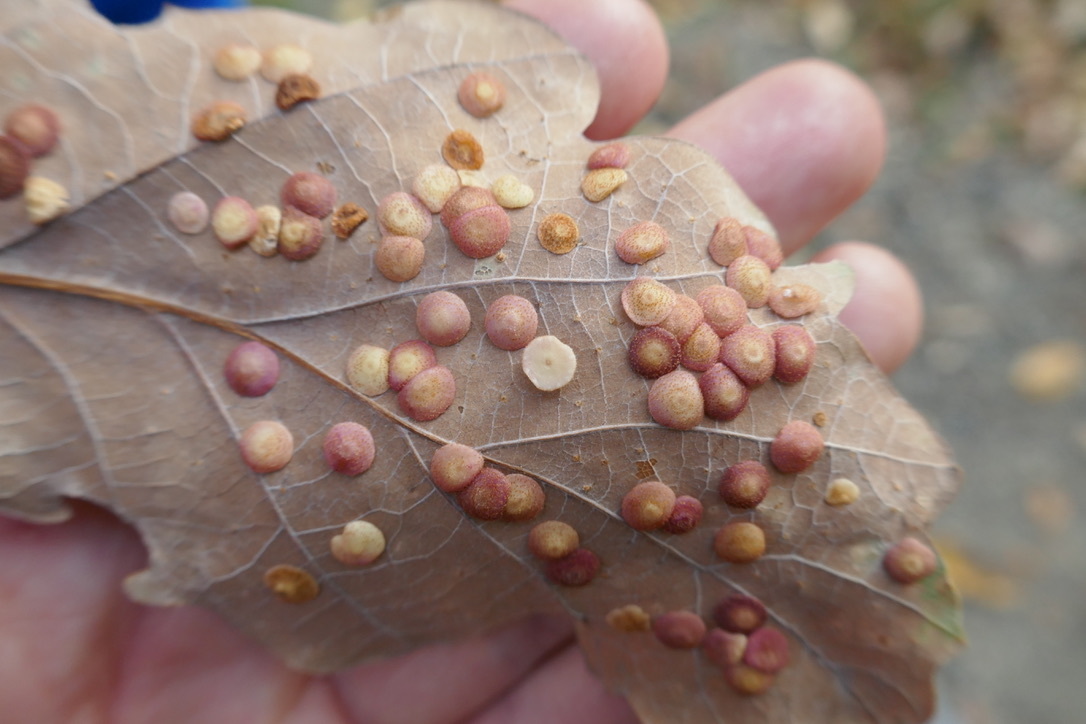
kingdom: Animalia
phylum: Arthropoda
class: Insecta
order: Hymenoptera
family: Cynipidae
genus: Neuroterus
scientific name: Neuroterus quercusbaccarum
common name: Common spangle gall
